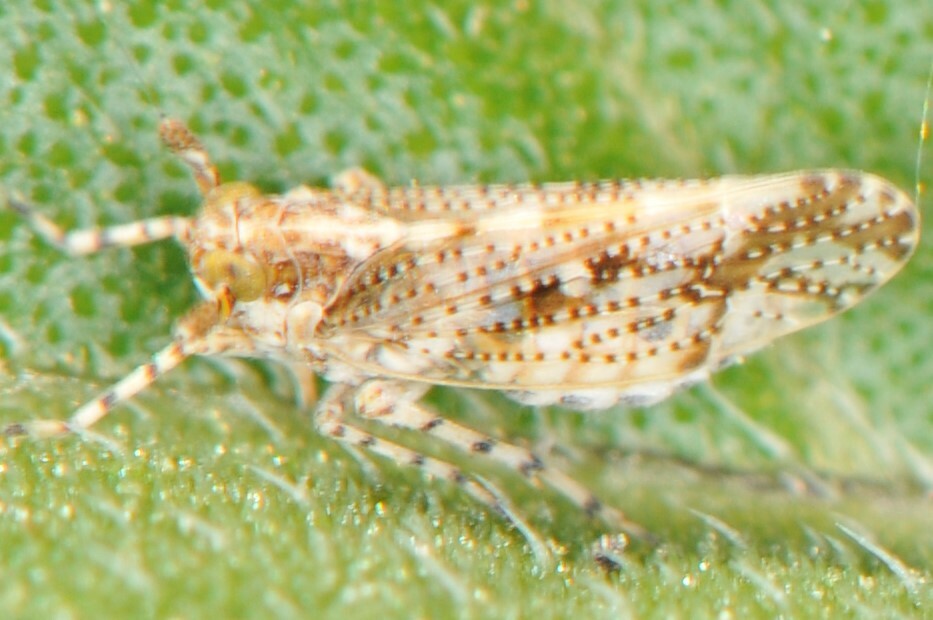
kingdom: Animalia
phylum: Arthropoda
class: Insecta
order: Hemiptera
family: Delphacidae
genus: Stobaera
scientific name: Stobaera
